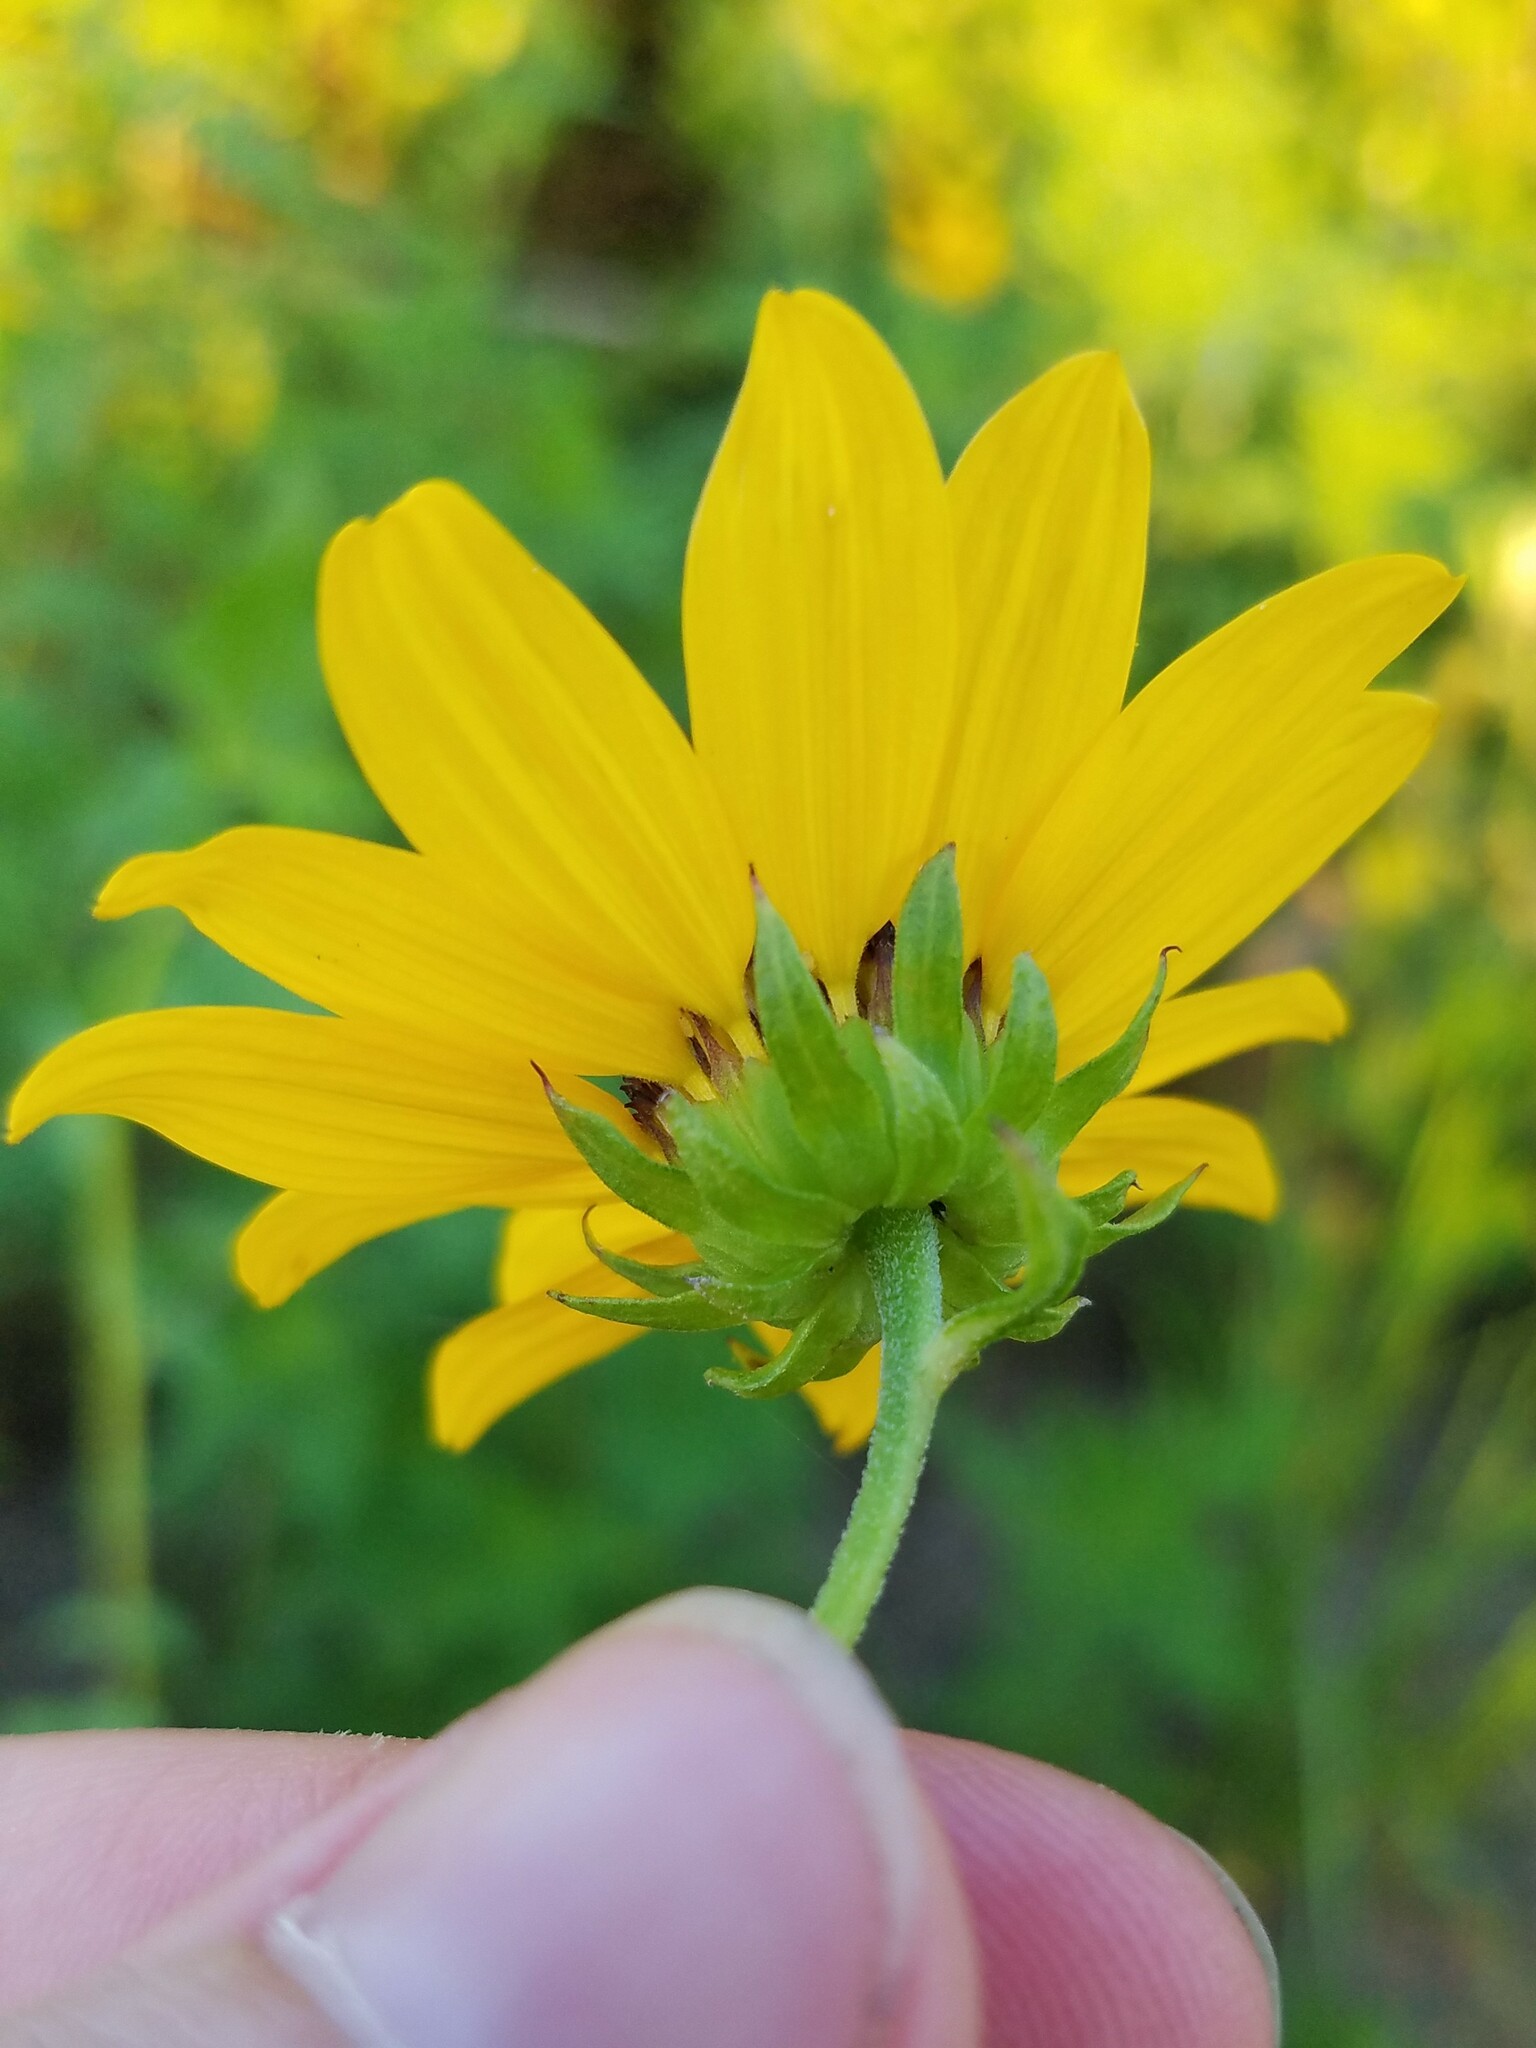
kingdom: Plantae
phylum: Tracheophyta
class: Magnoliopsida
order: Asterales
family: Asteraceae
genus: Helianthus
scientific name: Helianthus debilis
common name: Weak sunflower
